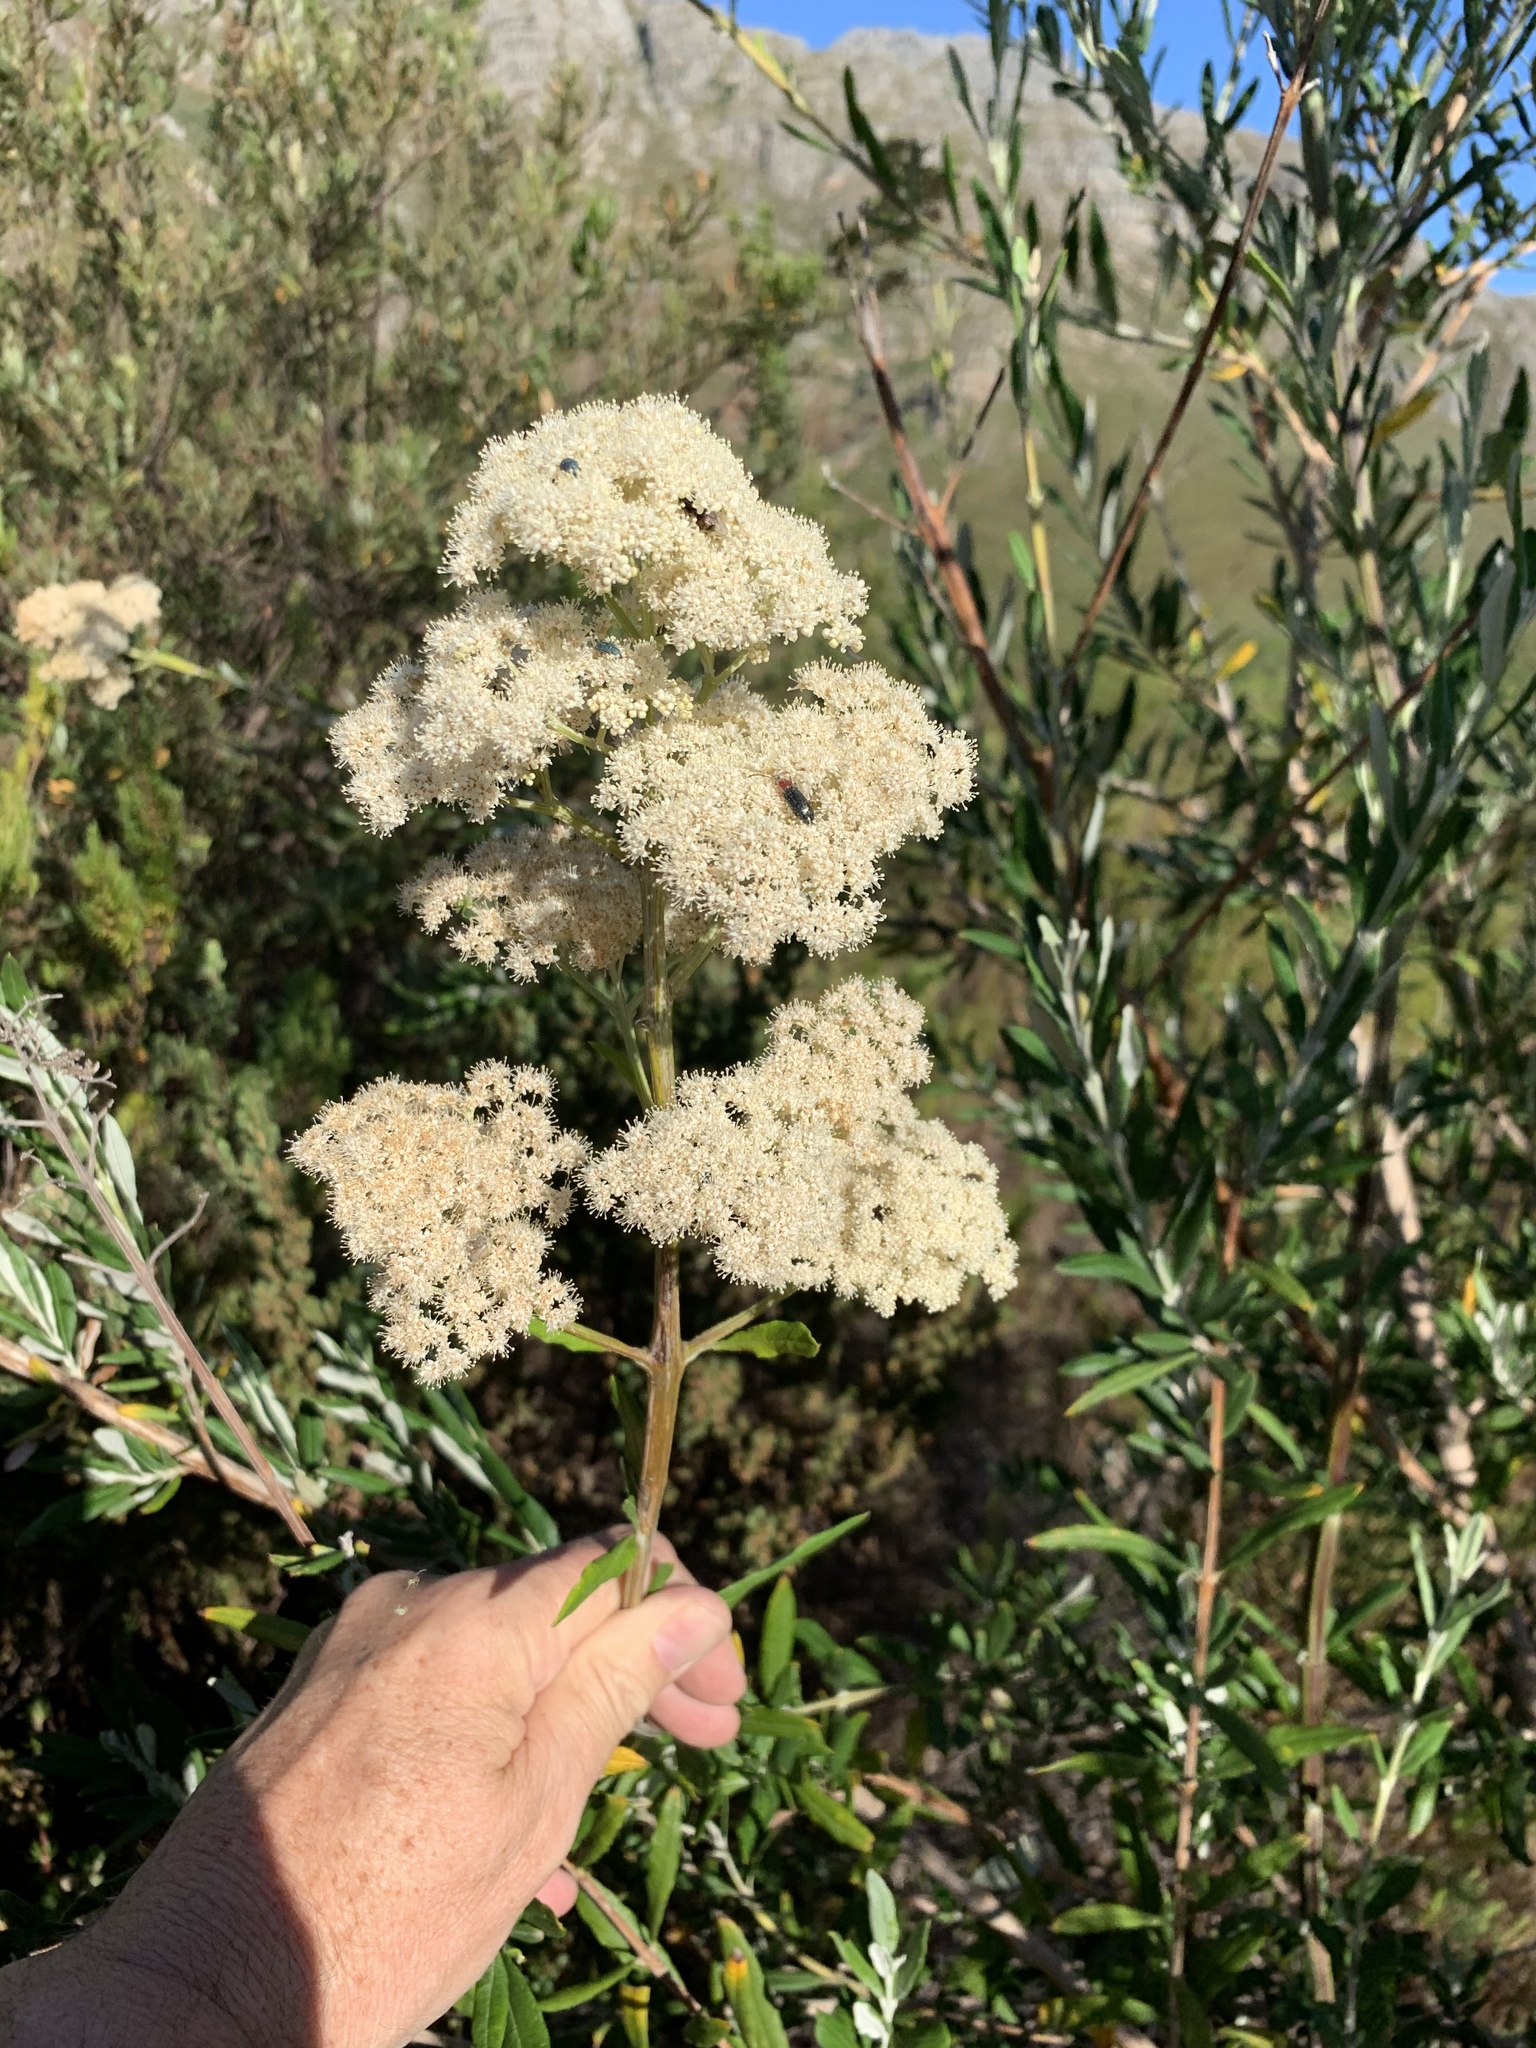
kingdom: Plantae
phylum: Tracheophyta
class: Magnoliopsida
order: Lamiales
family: Scrophulariaceae
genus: Buddleja
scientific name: Buddleja saligna
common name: False olive
